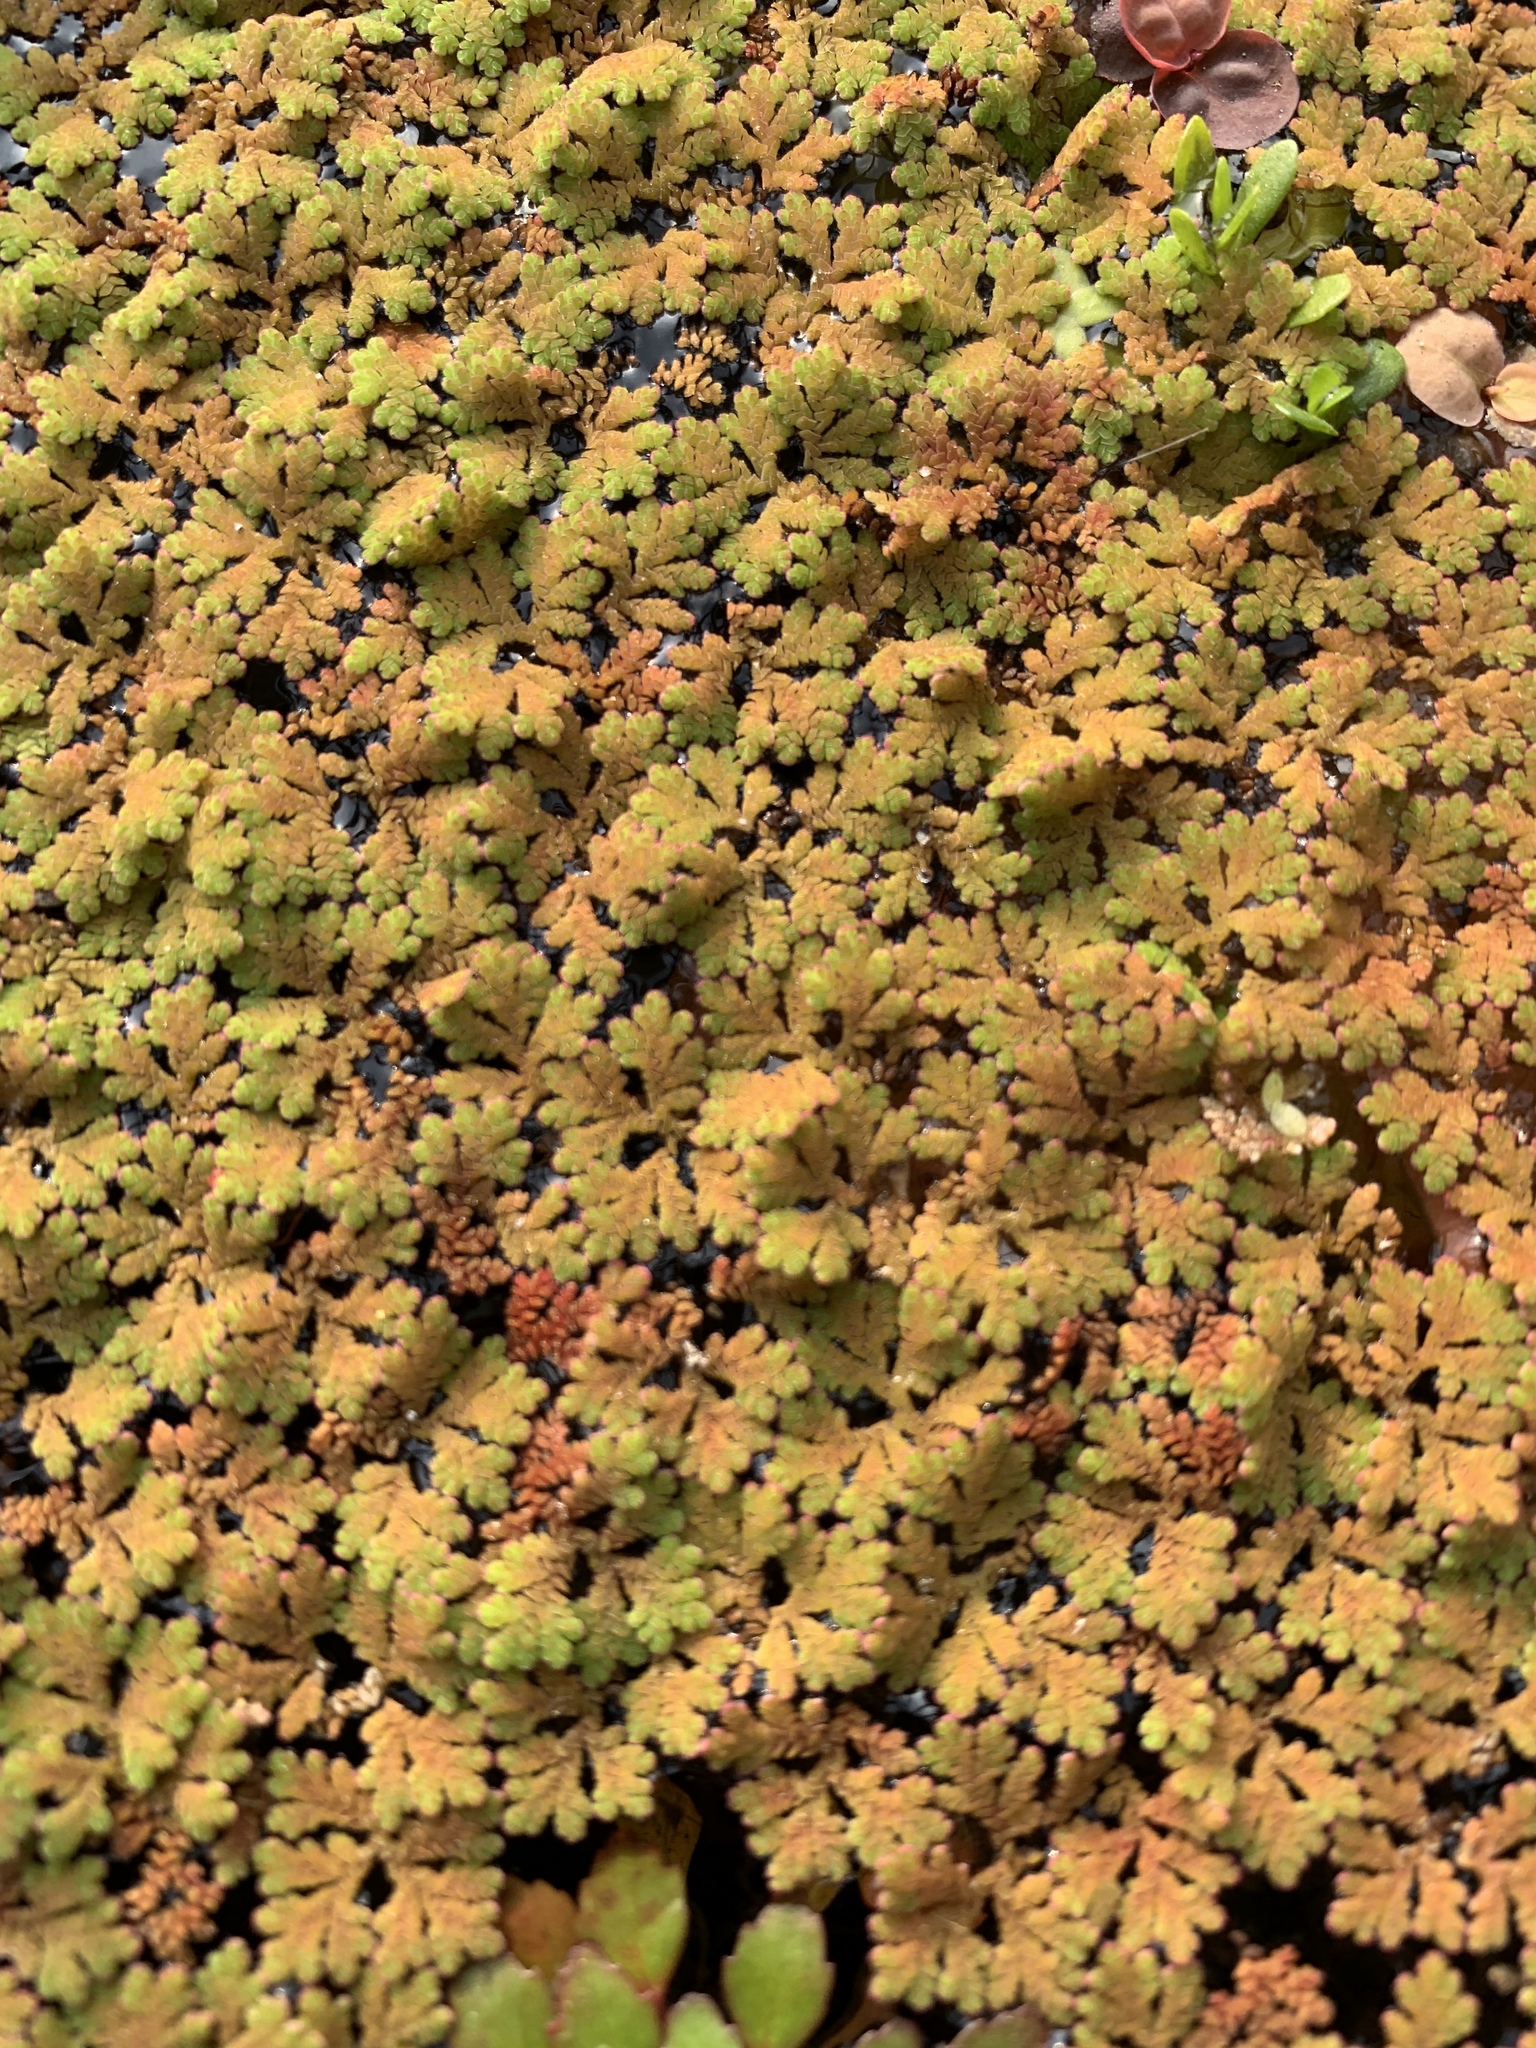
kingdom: Plantae
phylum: Tracheophyta
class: Polypodiopsida
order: Salviniales
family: Salviniaceae
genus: Azolla
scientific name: Azolla caroliniana
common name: Carolina mosquitofern
